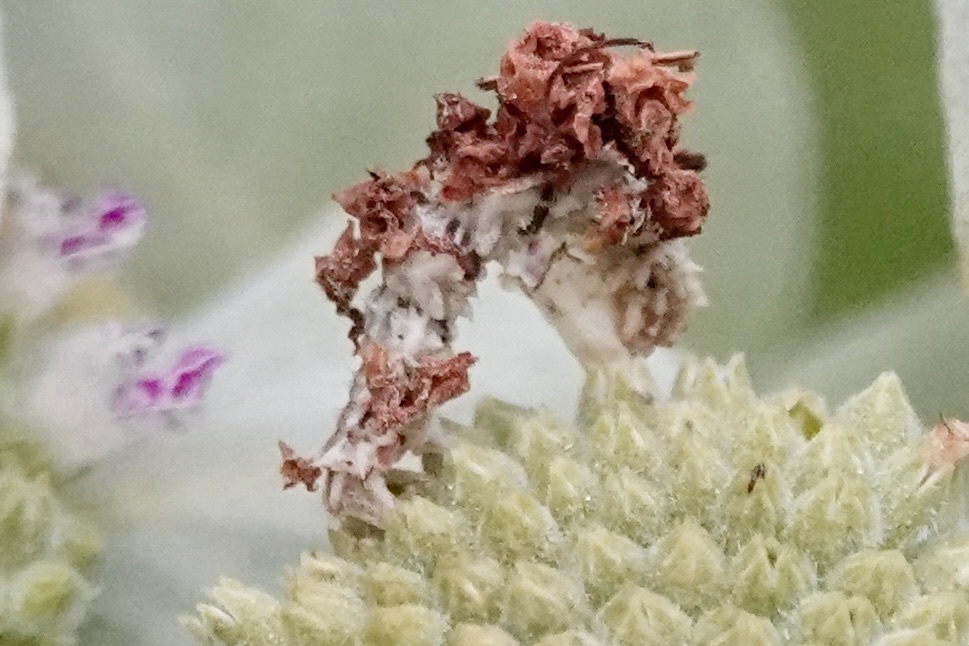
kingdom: Animalia
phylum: Arthropoda
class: Insecta
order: Lepidoptera
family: Geometridae
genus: Synchlora
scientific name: Synchlora aerata
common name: Wavy-lined emerald
